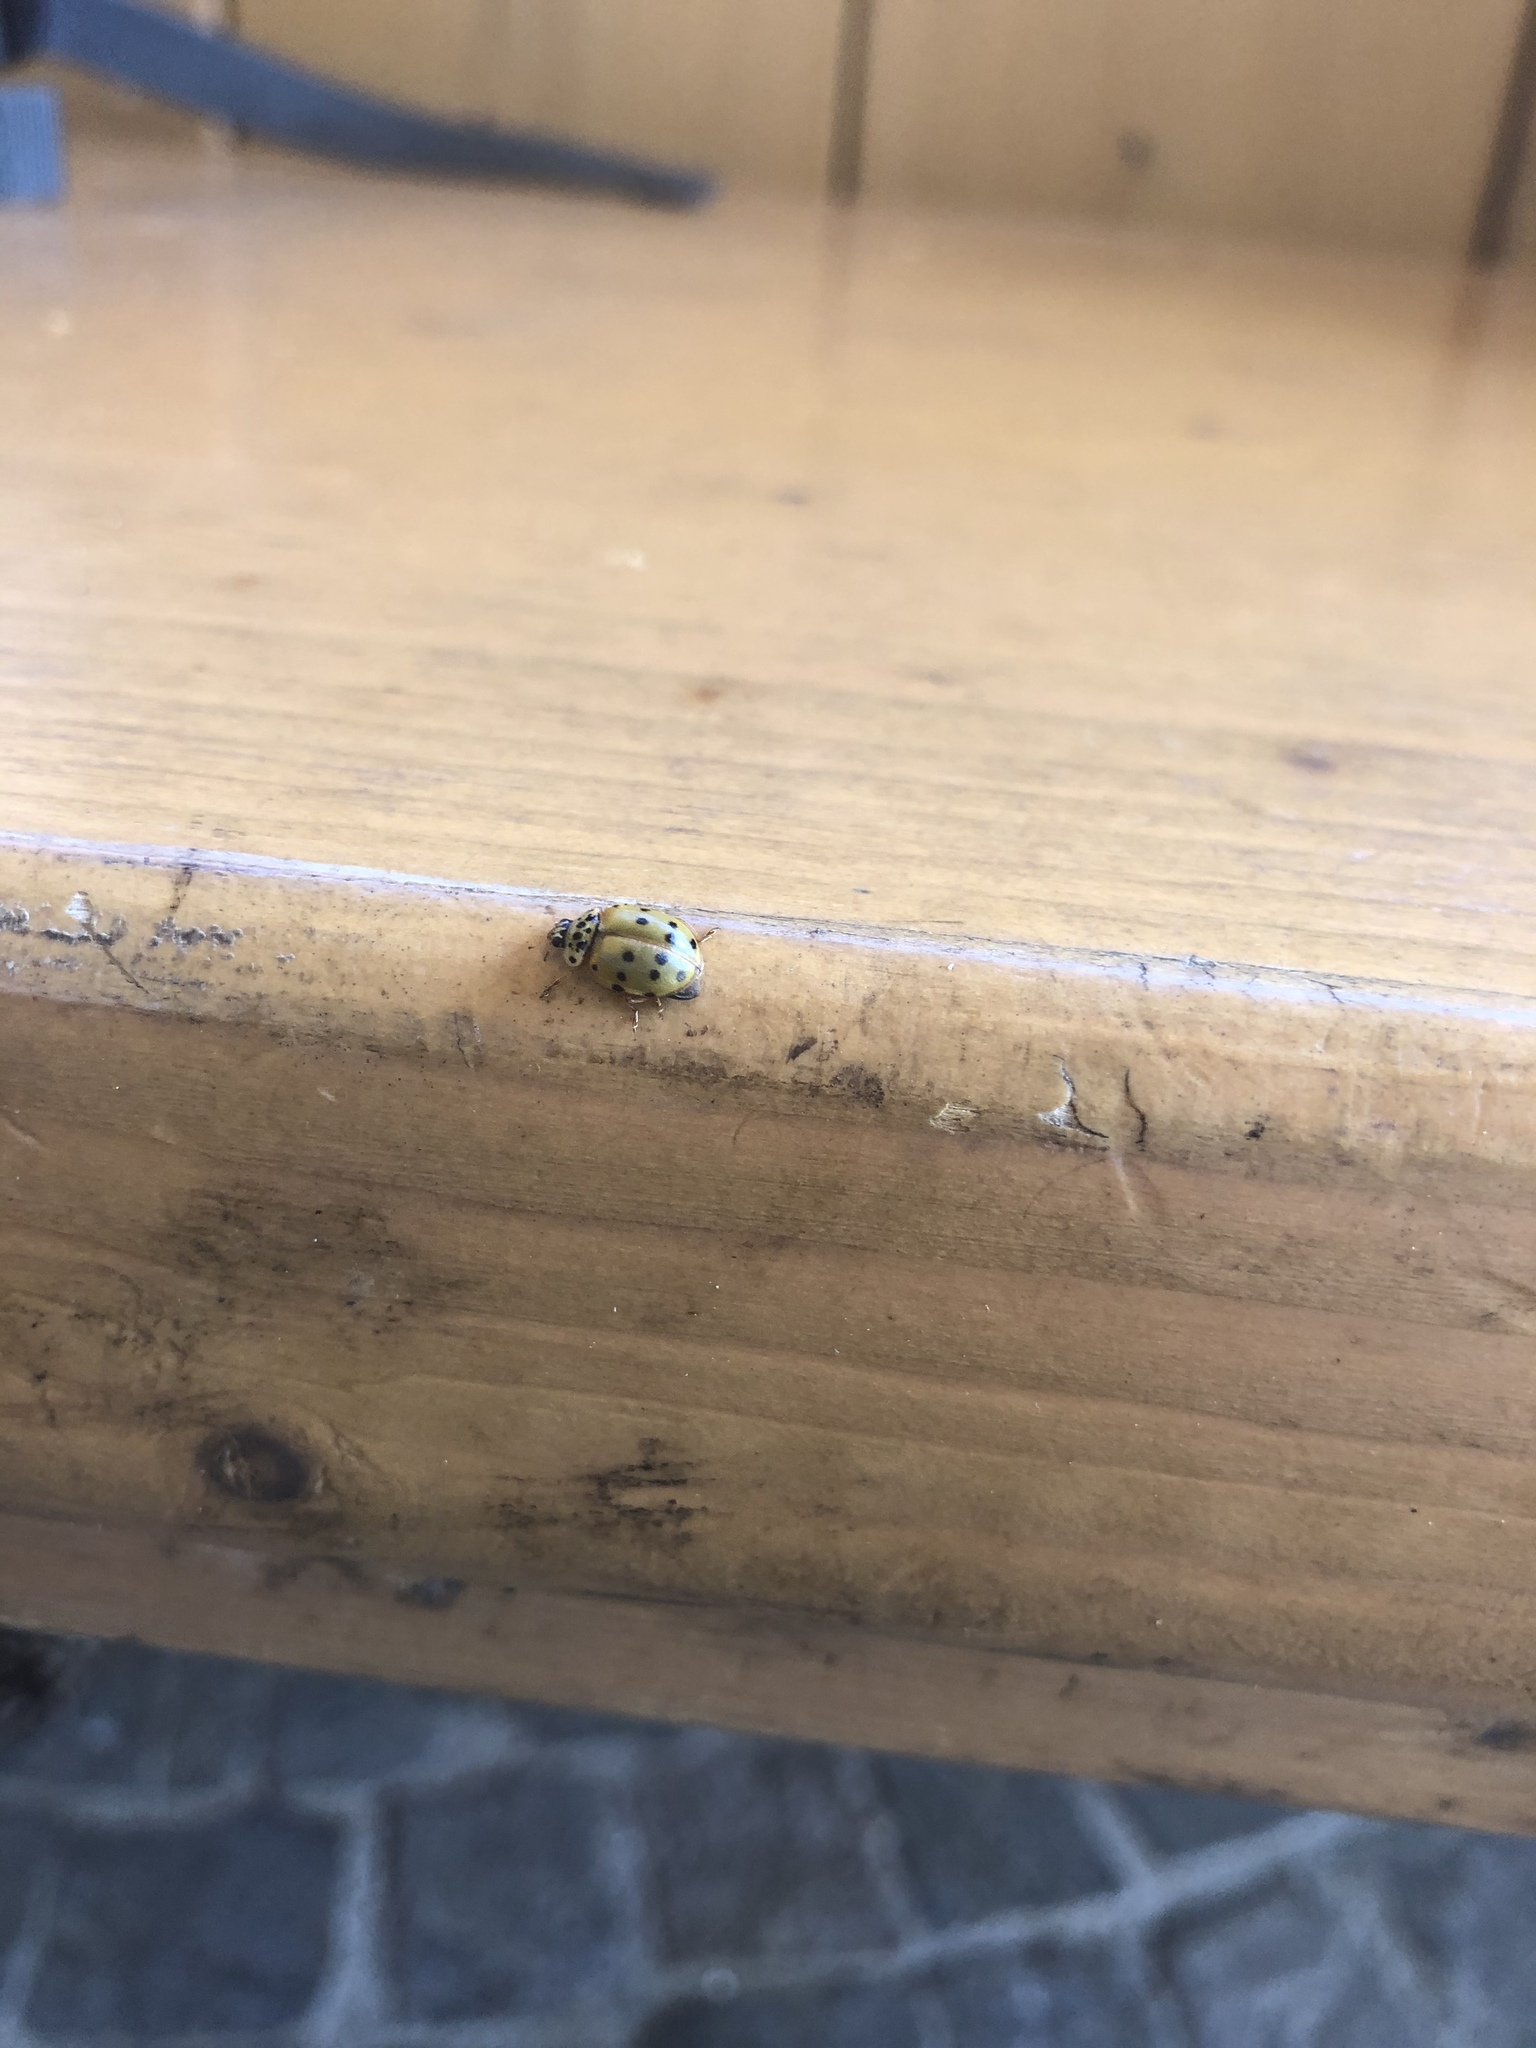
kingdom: Animalia
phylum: Arthropoda
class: Insecta
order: Coleoptera
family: Coccinellidae
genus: Harmonia
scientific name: Harmonia quadripunctata
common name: Cream-streaked ladybird
